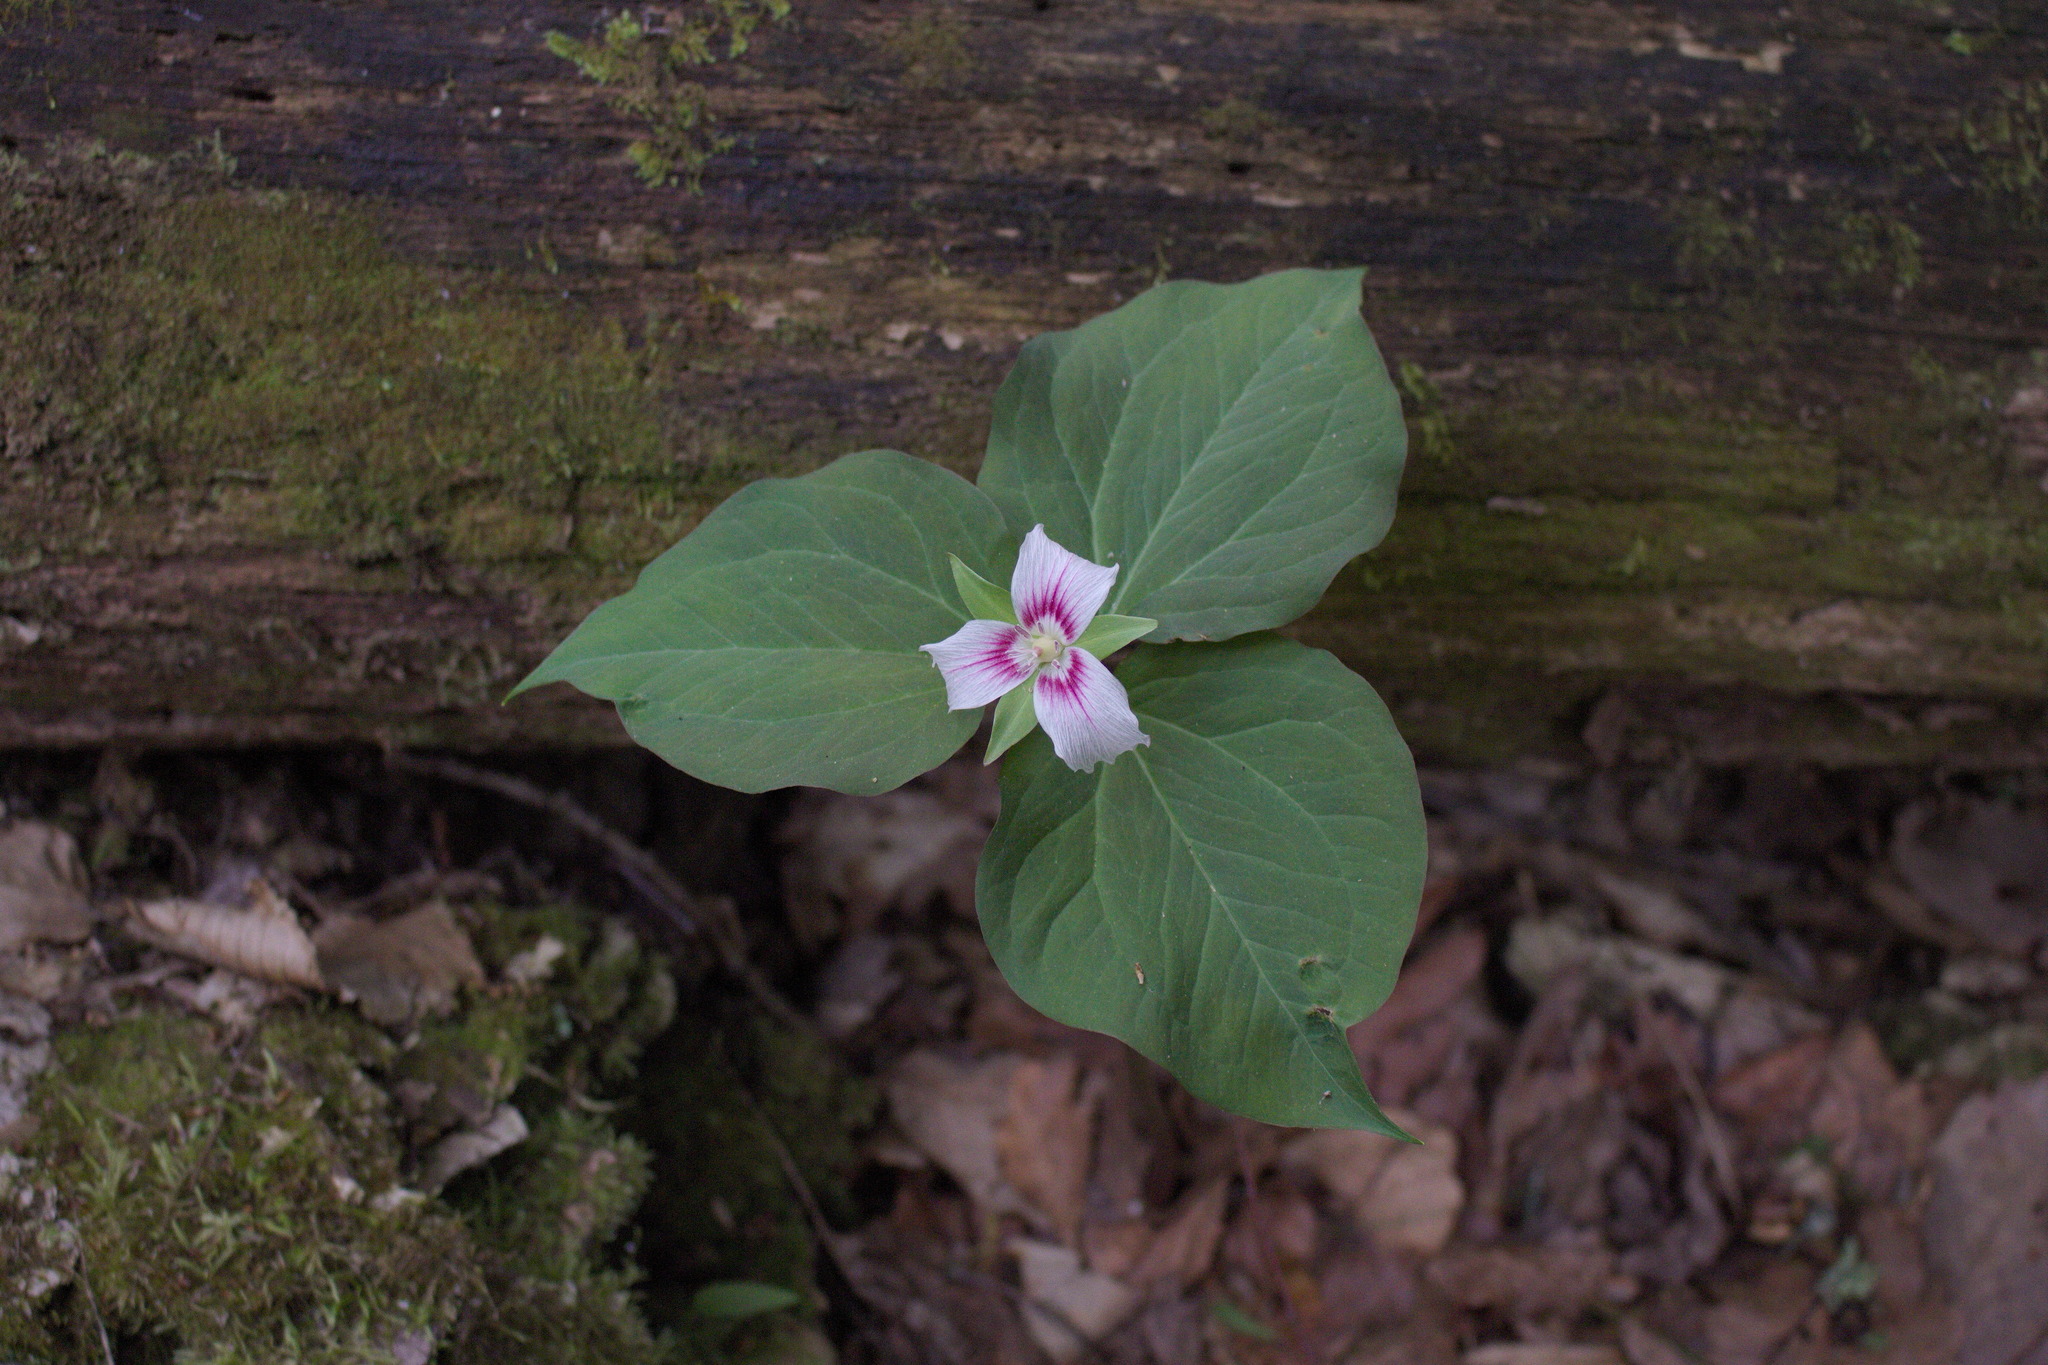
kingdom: Plantae
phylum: Tracheophyta
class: Liliopsida
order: Liliales
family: Melanthiaceae
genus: Trillium
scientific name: Trillium undulatum
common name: Paint trillium
